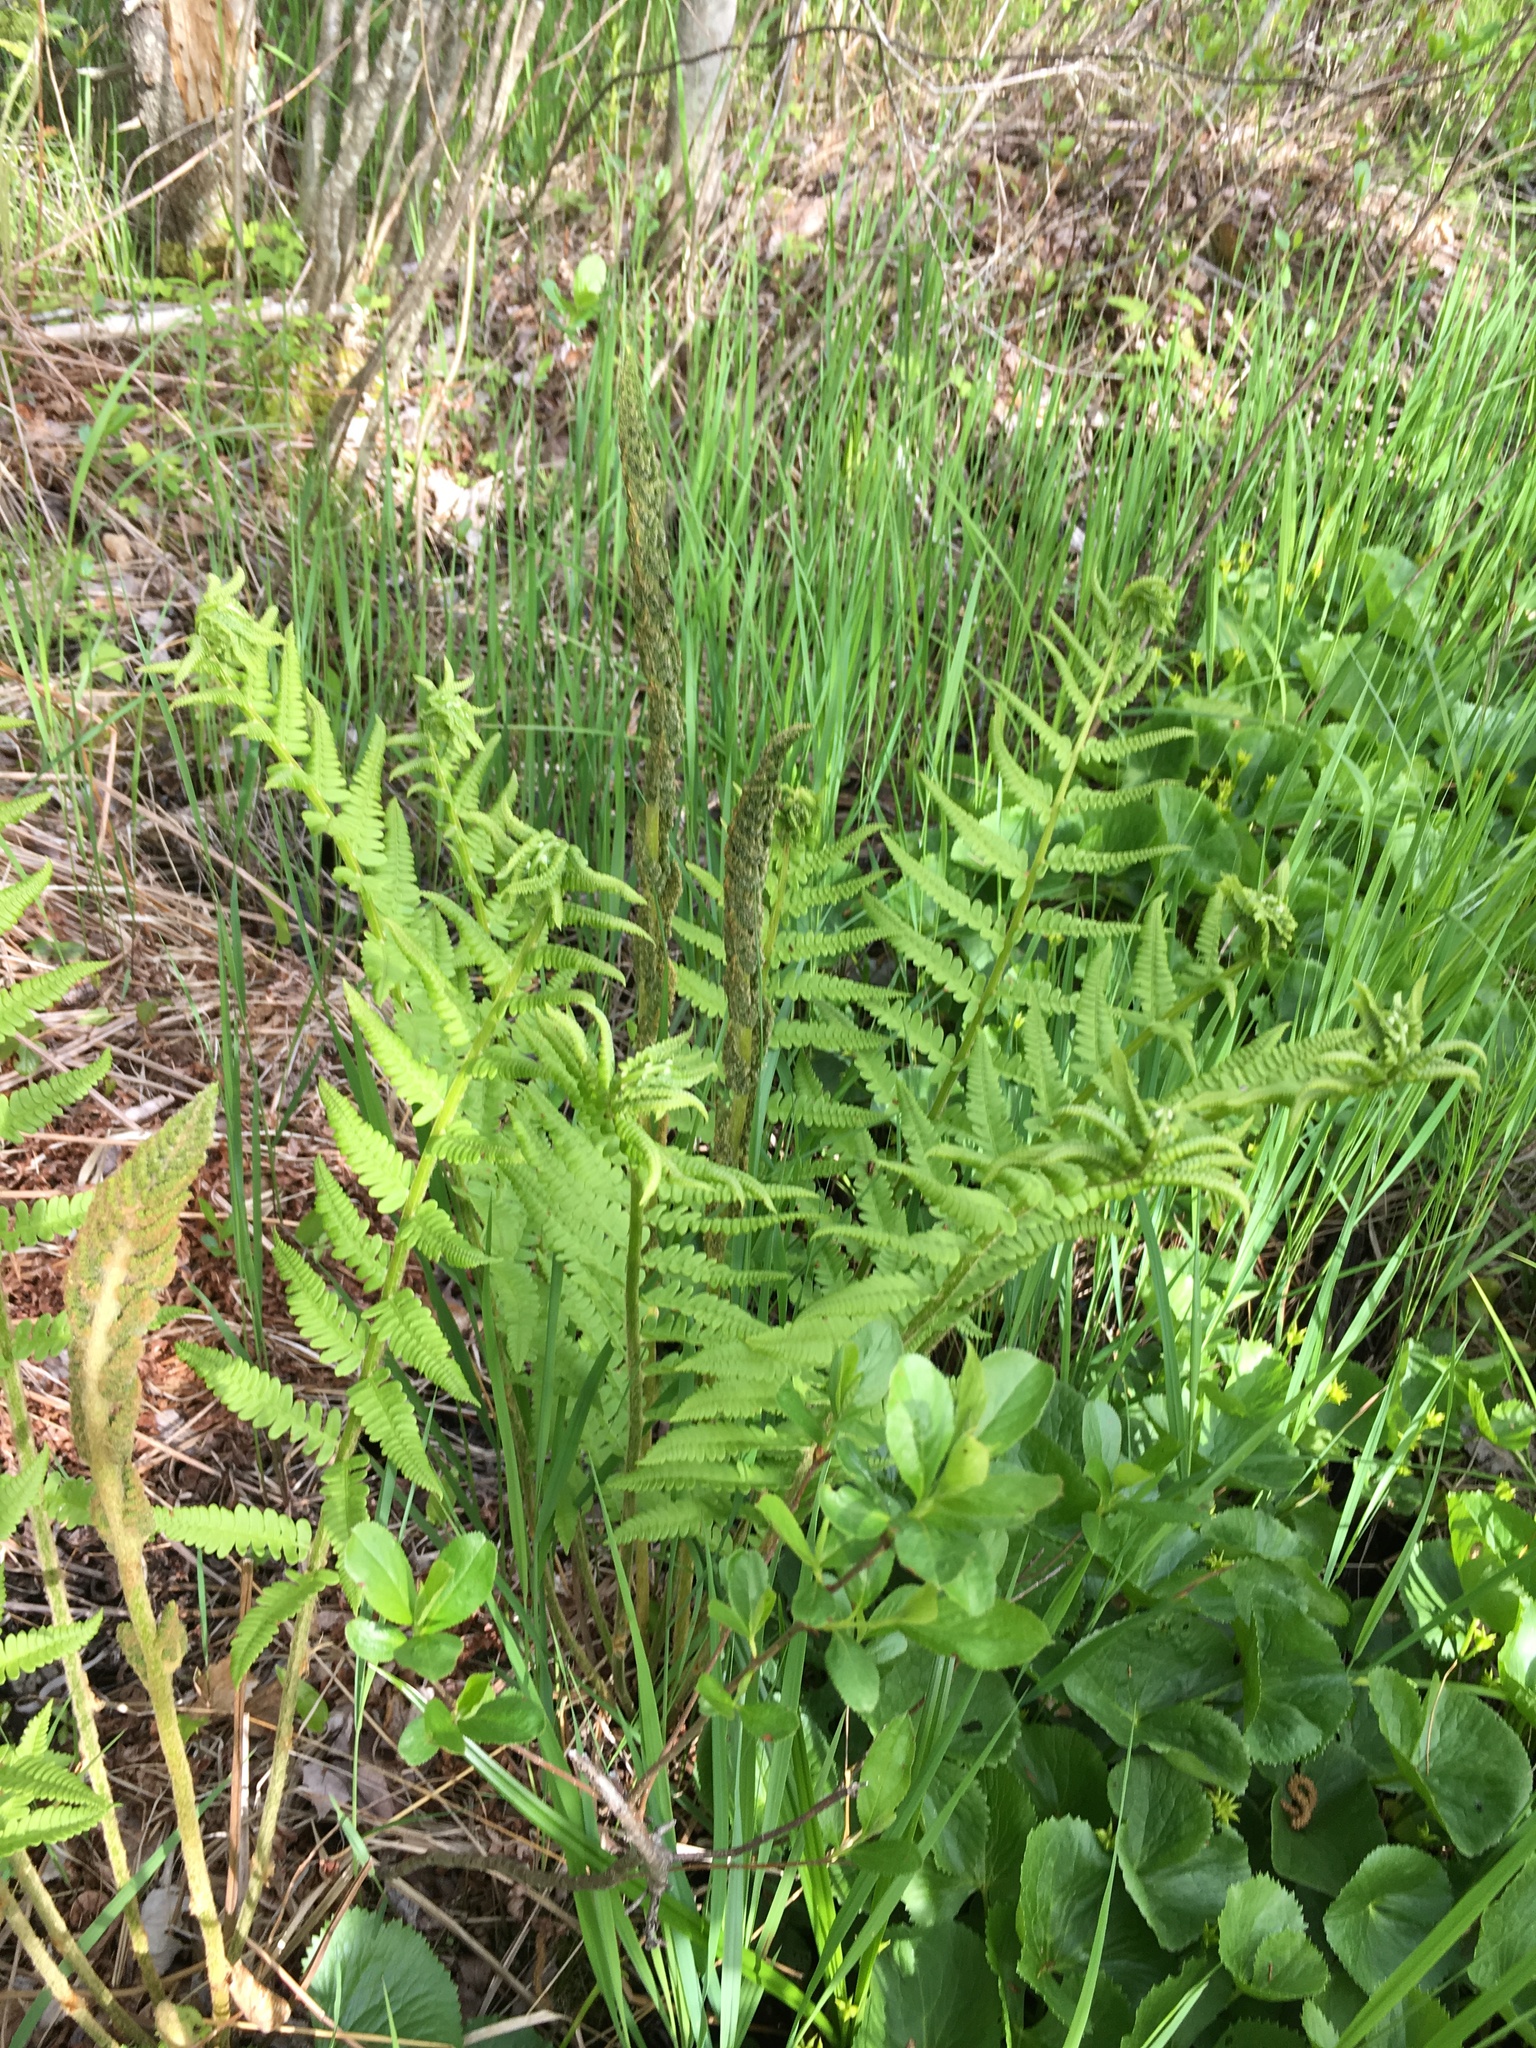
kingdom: Plantae
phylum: Tracheophyta
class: Polypodiopsida
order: Osmundales
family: Osmundaceae
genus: Osmundastrum
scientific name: Osmundastrum cinnamomeum
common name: Cinnamon fern
